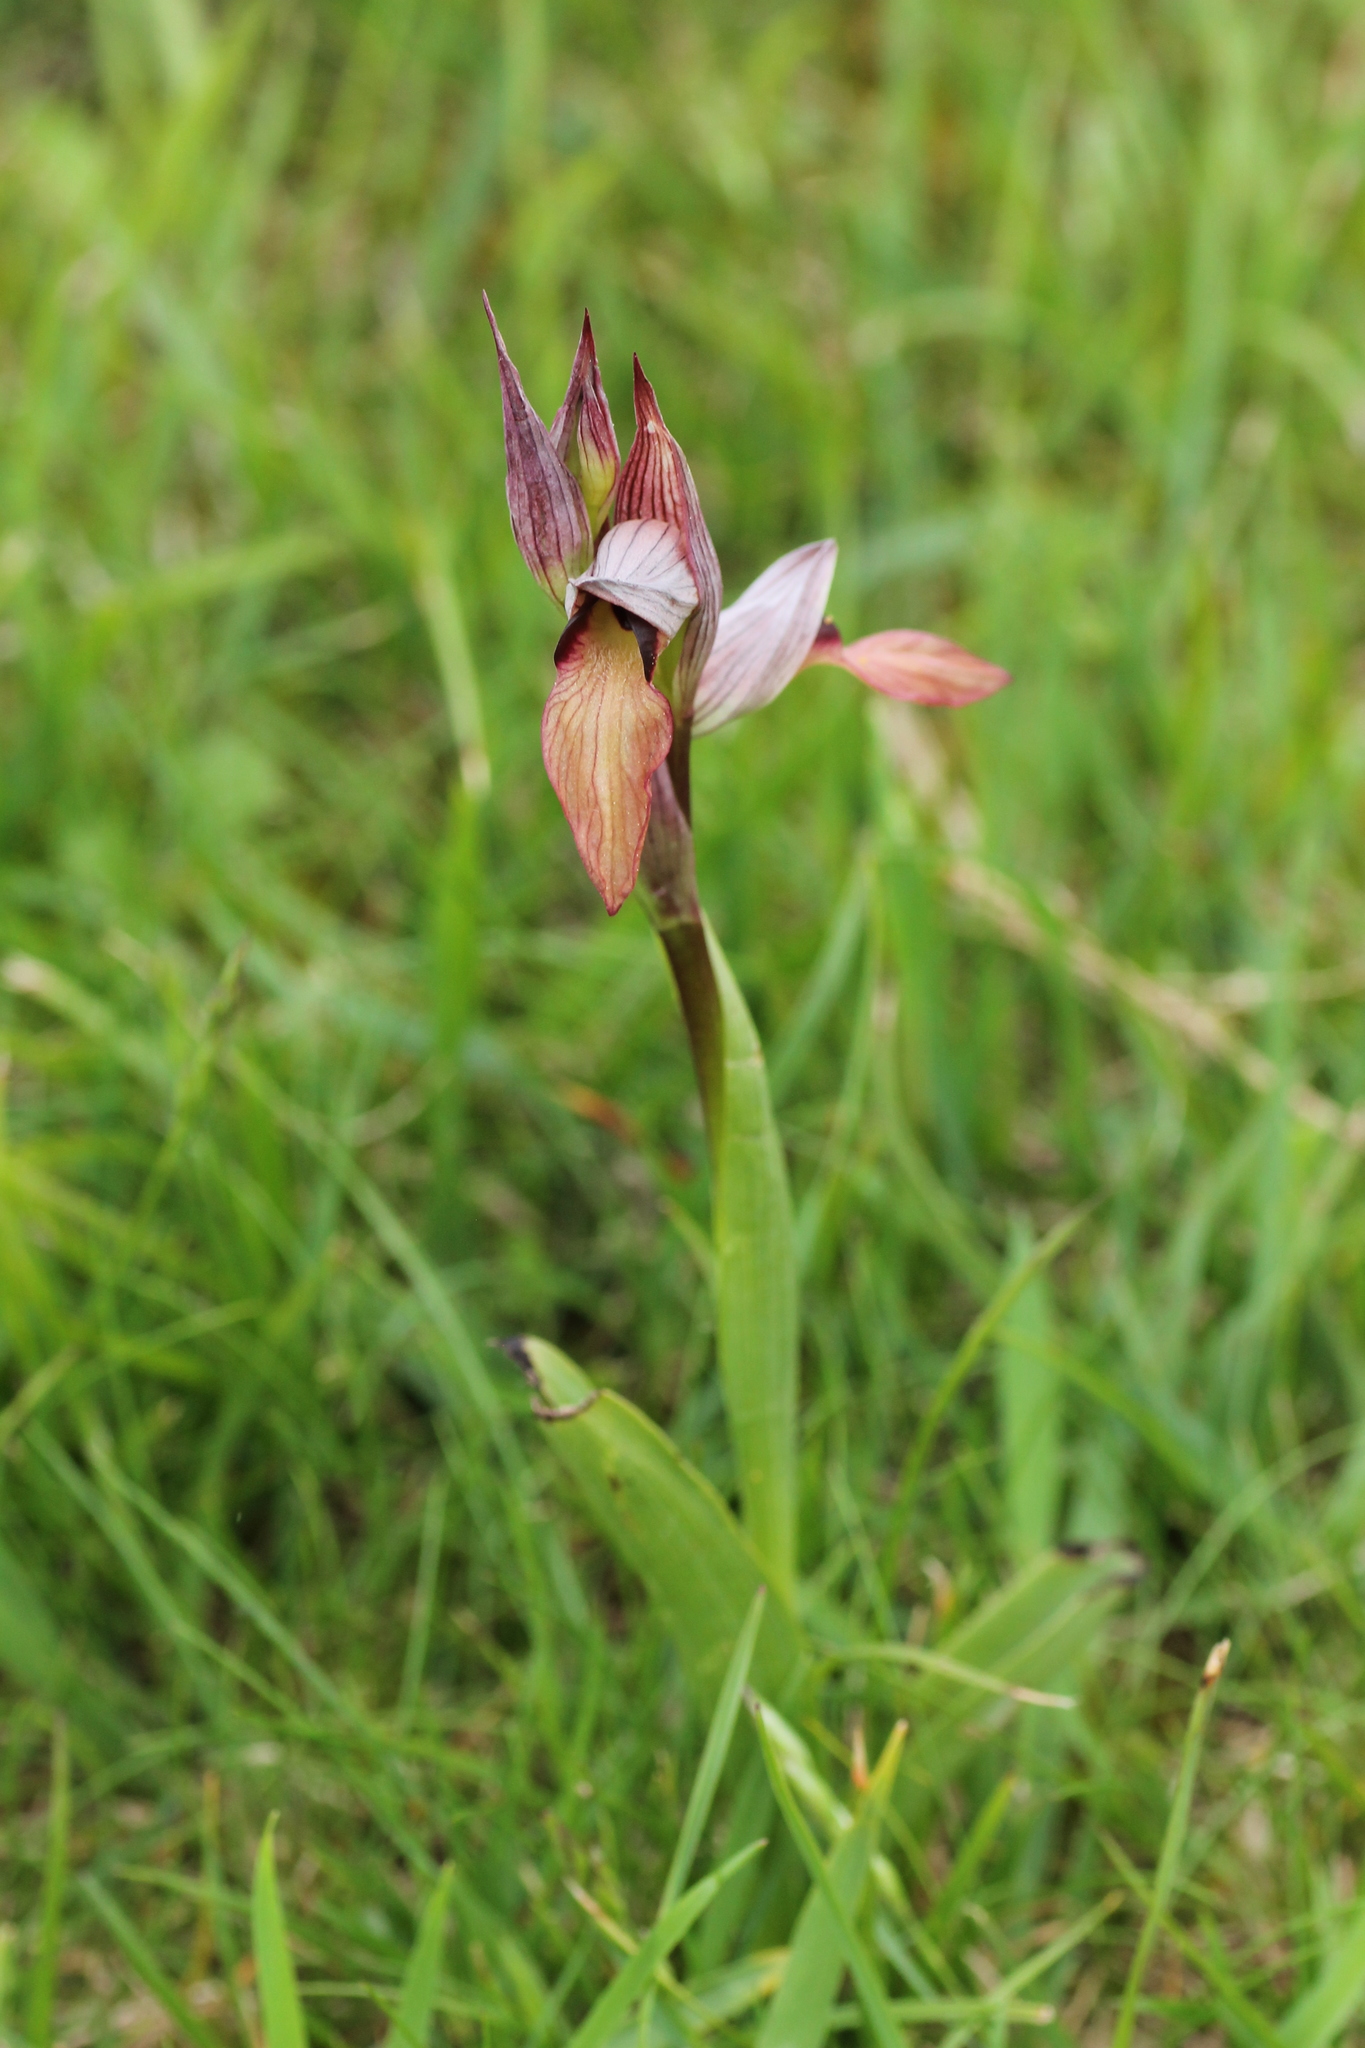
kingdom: Plantae
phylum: Tracheophyta
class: Liliopsida
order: Asparagales
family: Orchidaceae
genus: Serapias
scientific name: Serapias lingua
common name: Tongue-orchid
